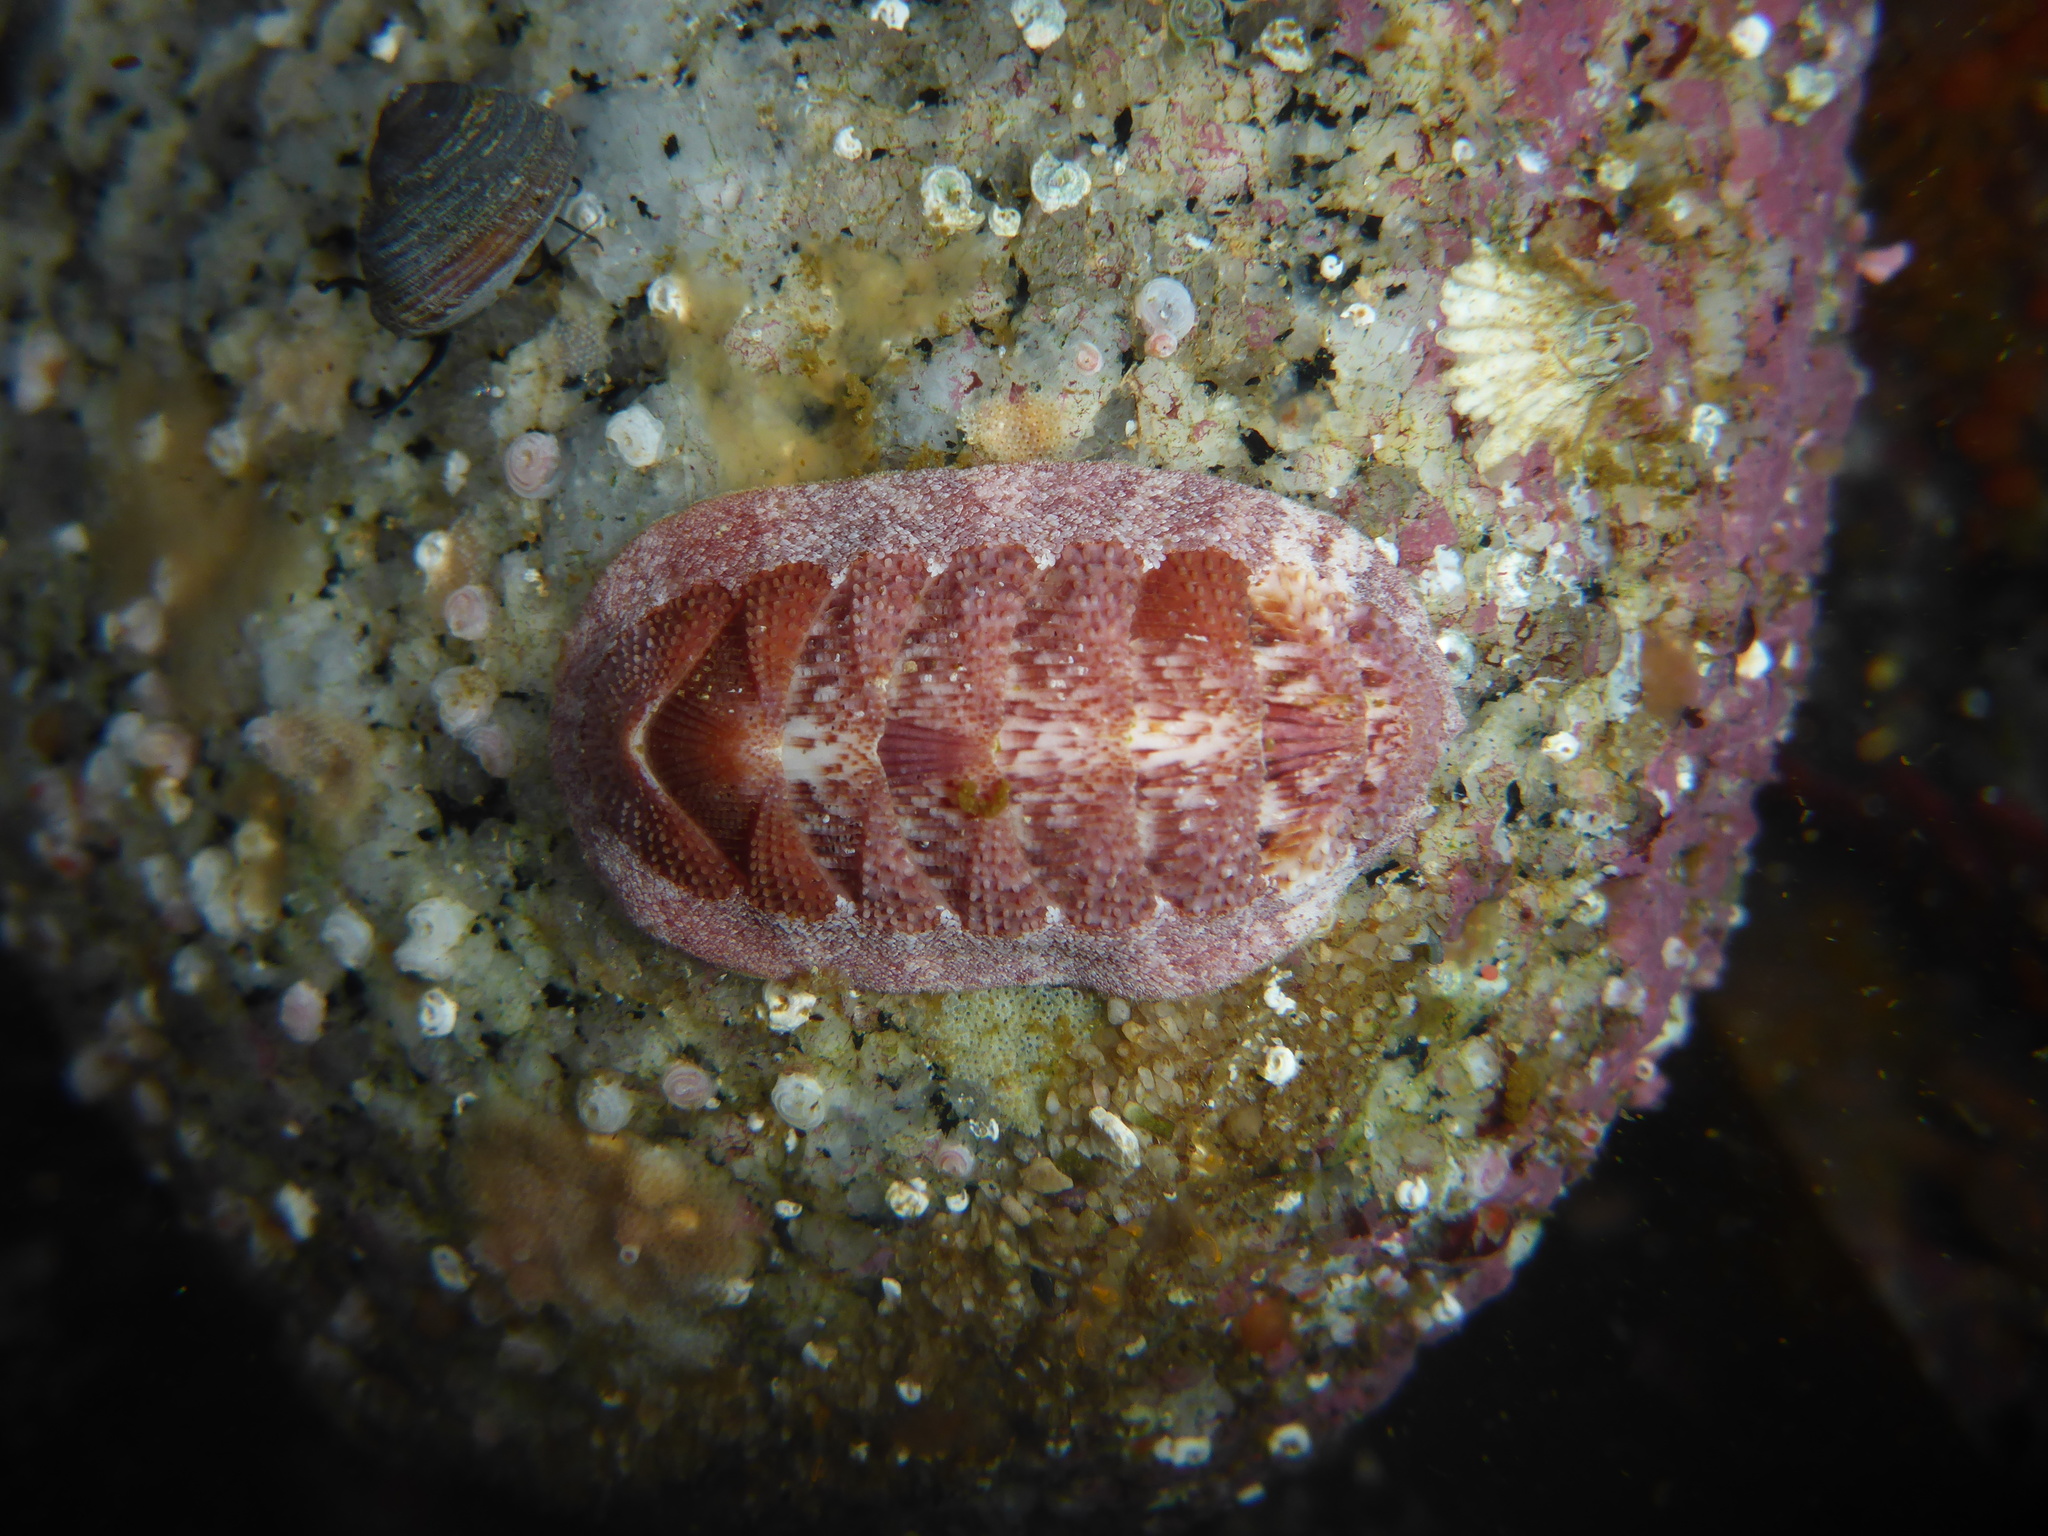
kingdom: Animalia
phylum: Mollusca
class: Polyplacophora
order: Chitonida
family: Ischnochitonidae
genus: Lepidozona
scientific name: Lepidozona mertensii
